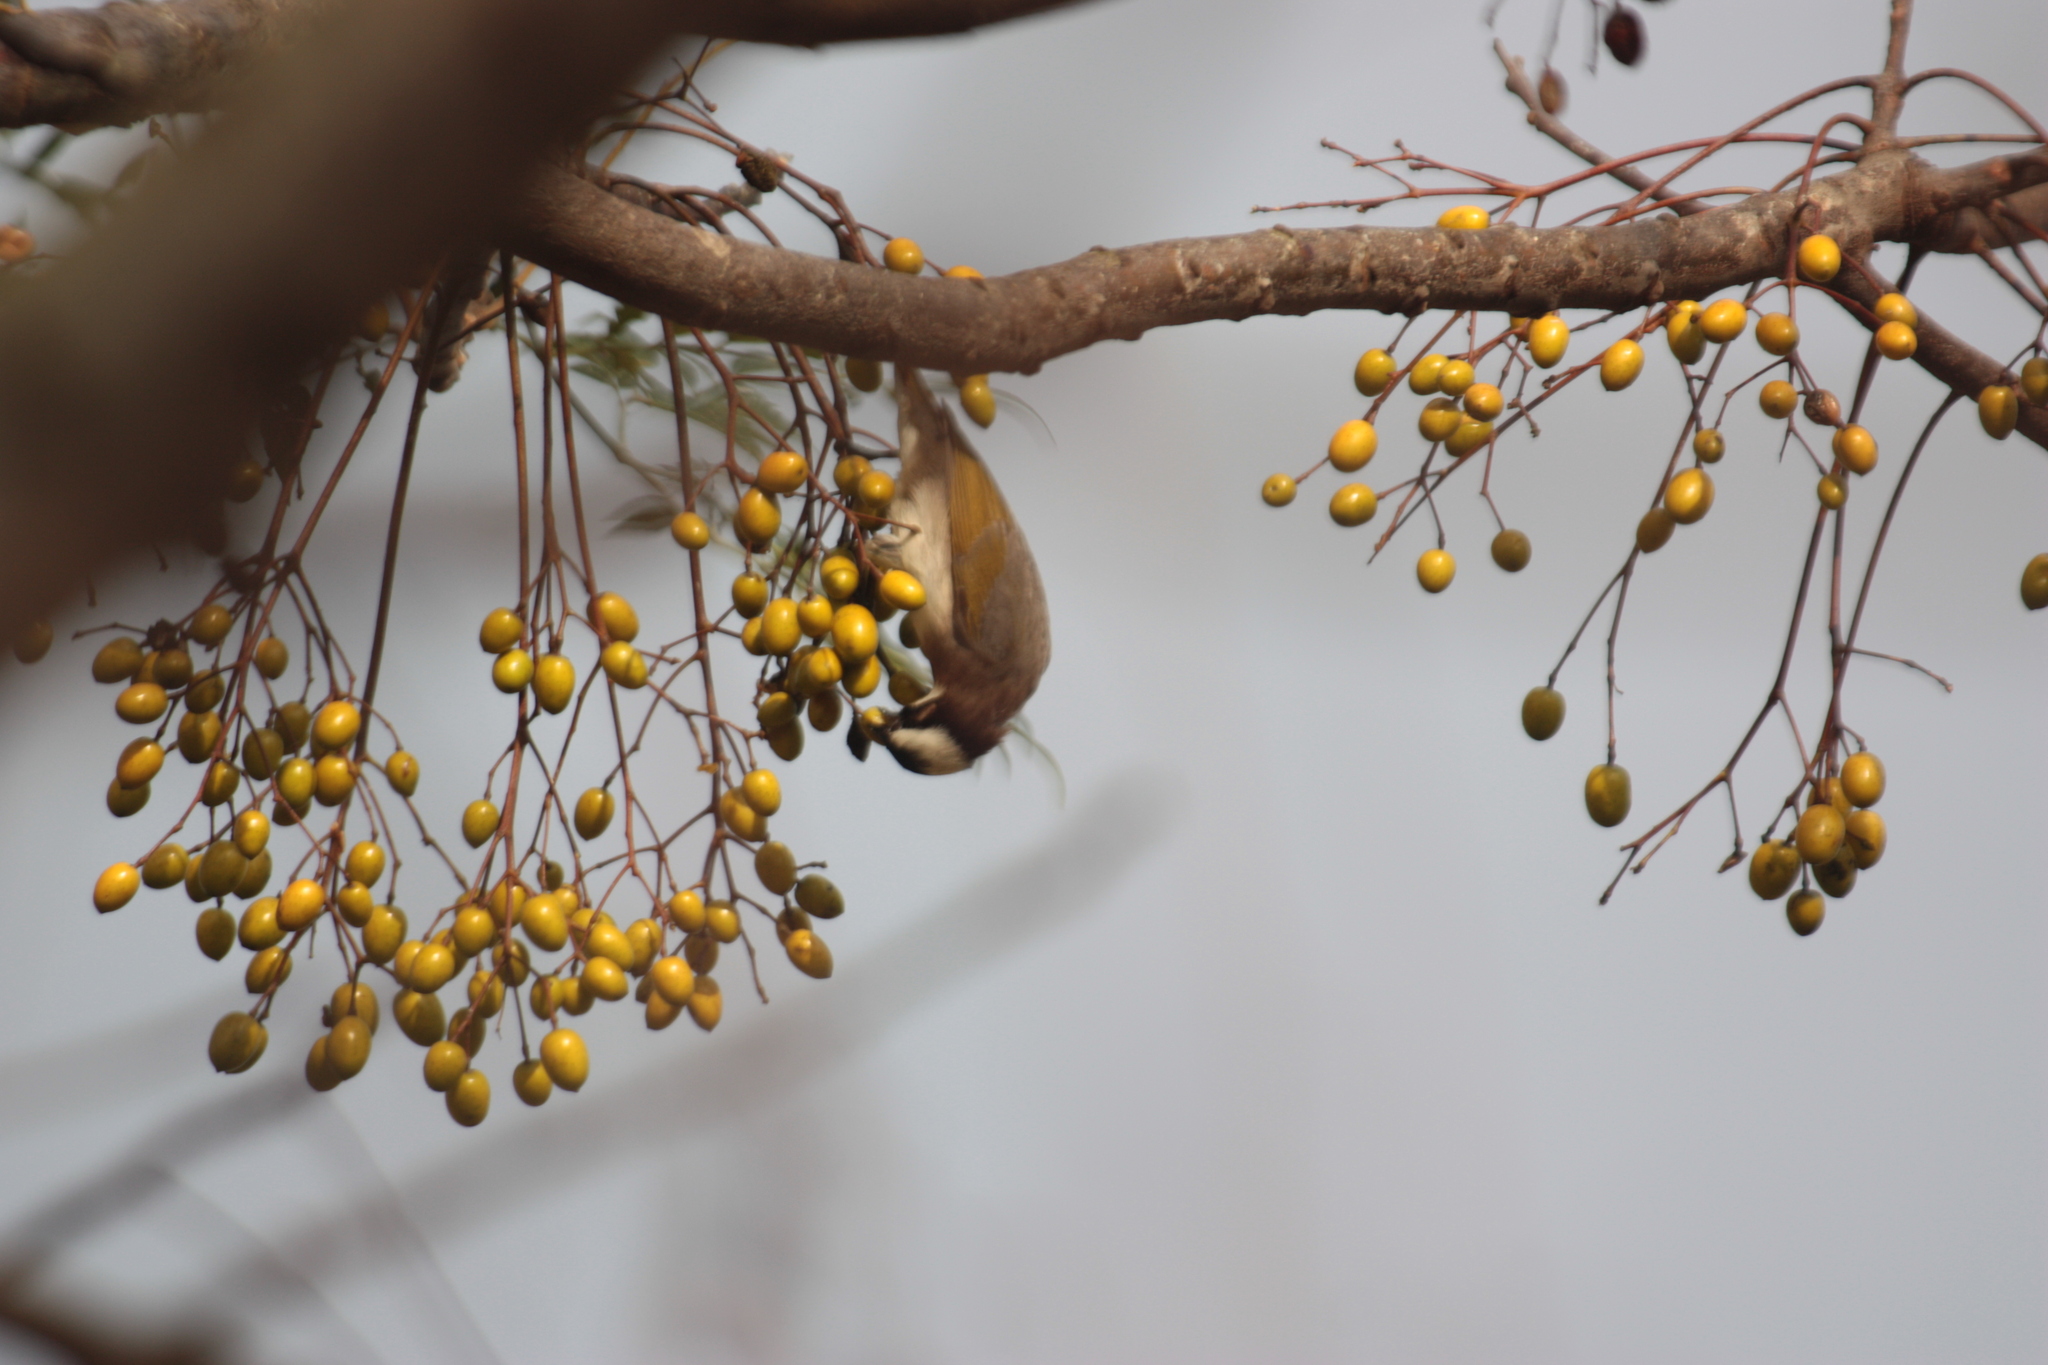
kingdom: Animalia
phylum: Chordata
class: Aves
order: Passeriformes
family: Pycnonotidae
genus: Pycnonotus
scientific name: Pycnonotus sinensis
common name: Light-vented bulbul
